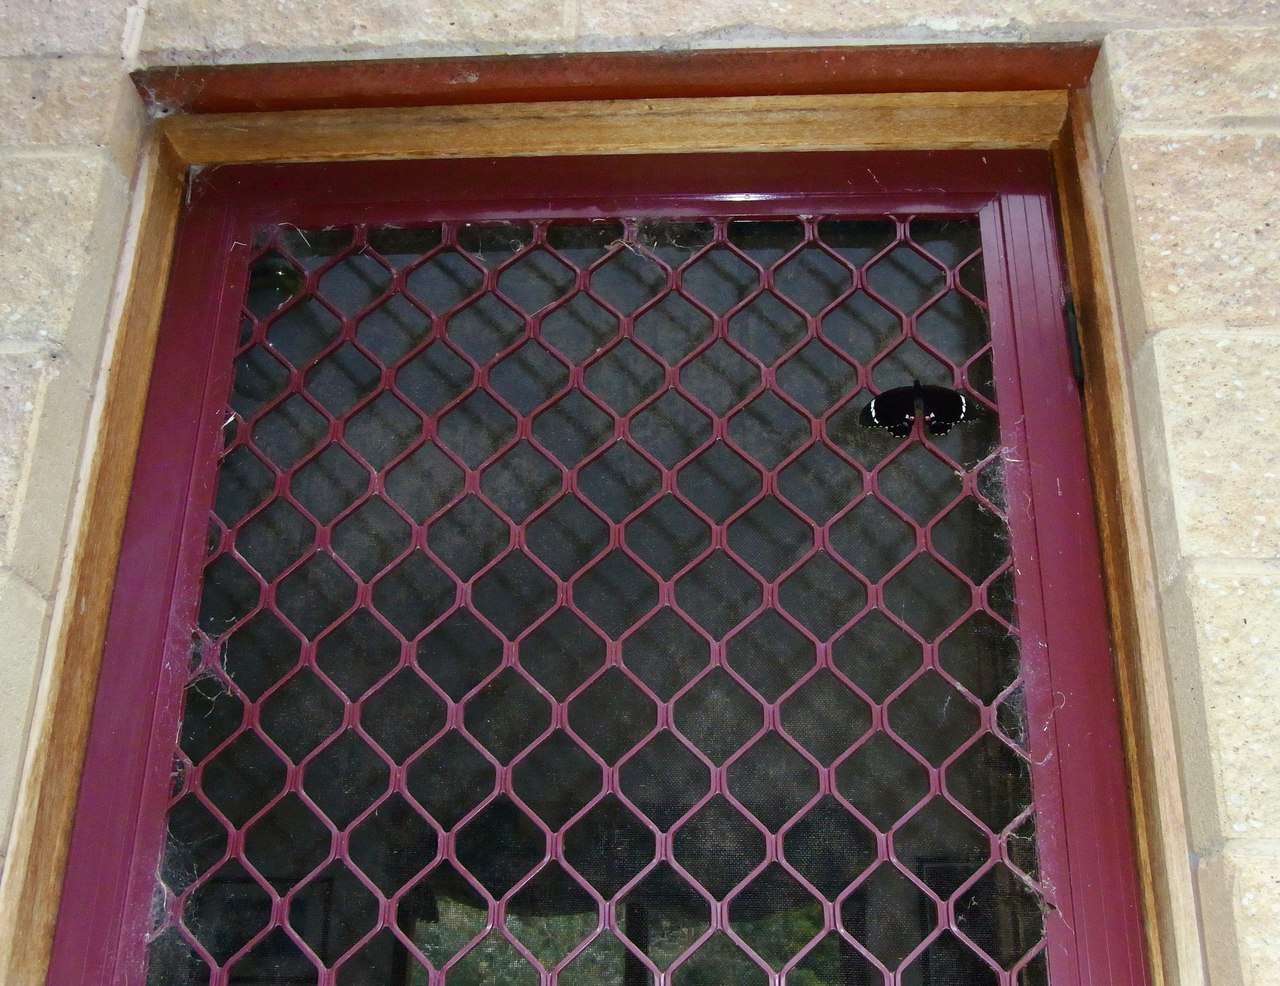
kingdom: Animalia
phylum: Arthropoda
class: Insecta
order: Lepidoptera
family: Papilionidae
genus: Papilio
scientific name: Papilio aegeus
